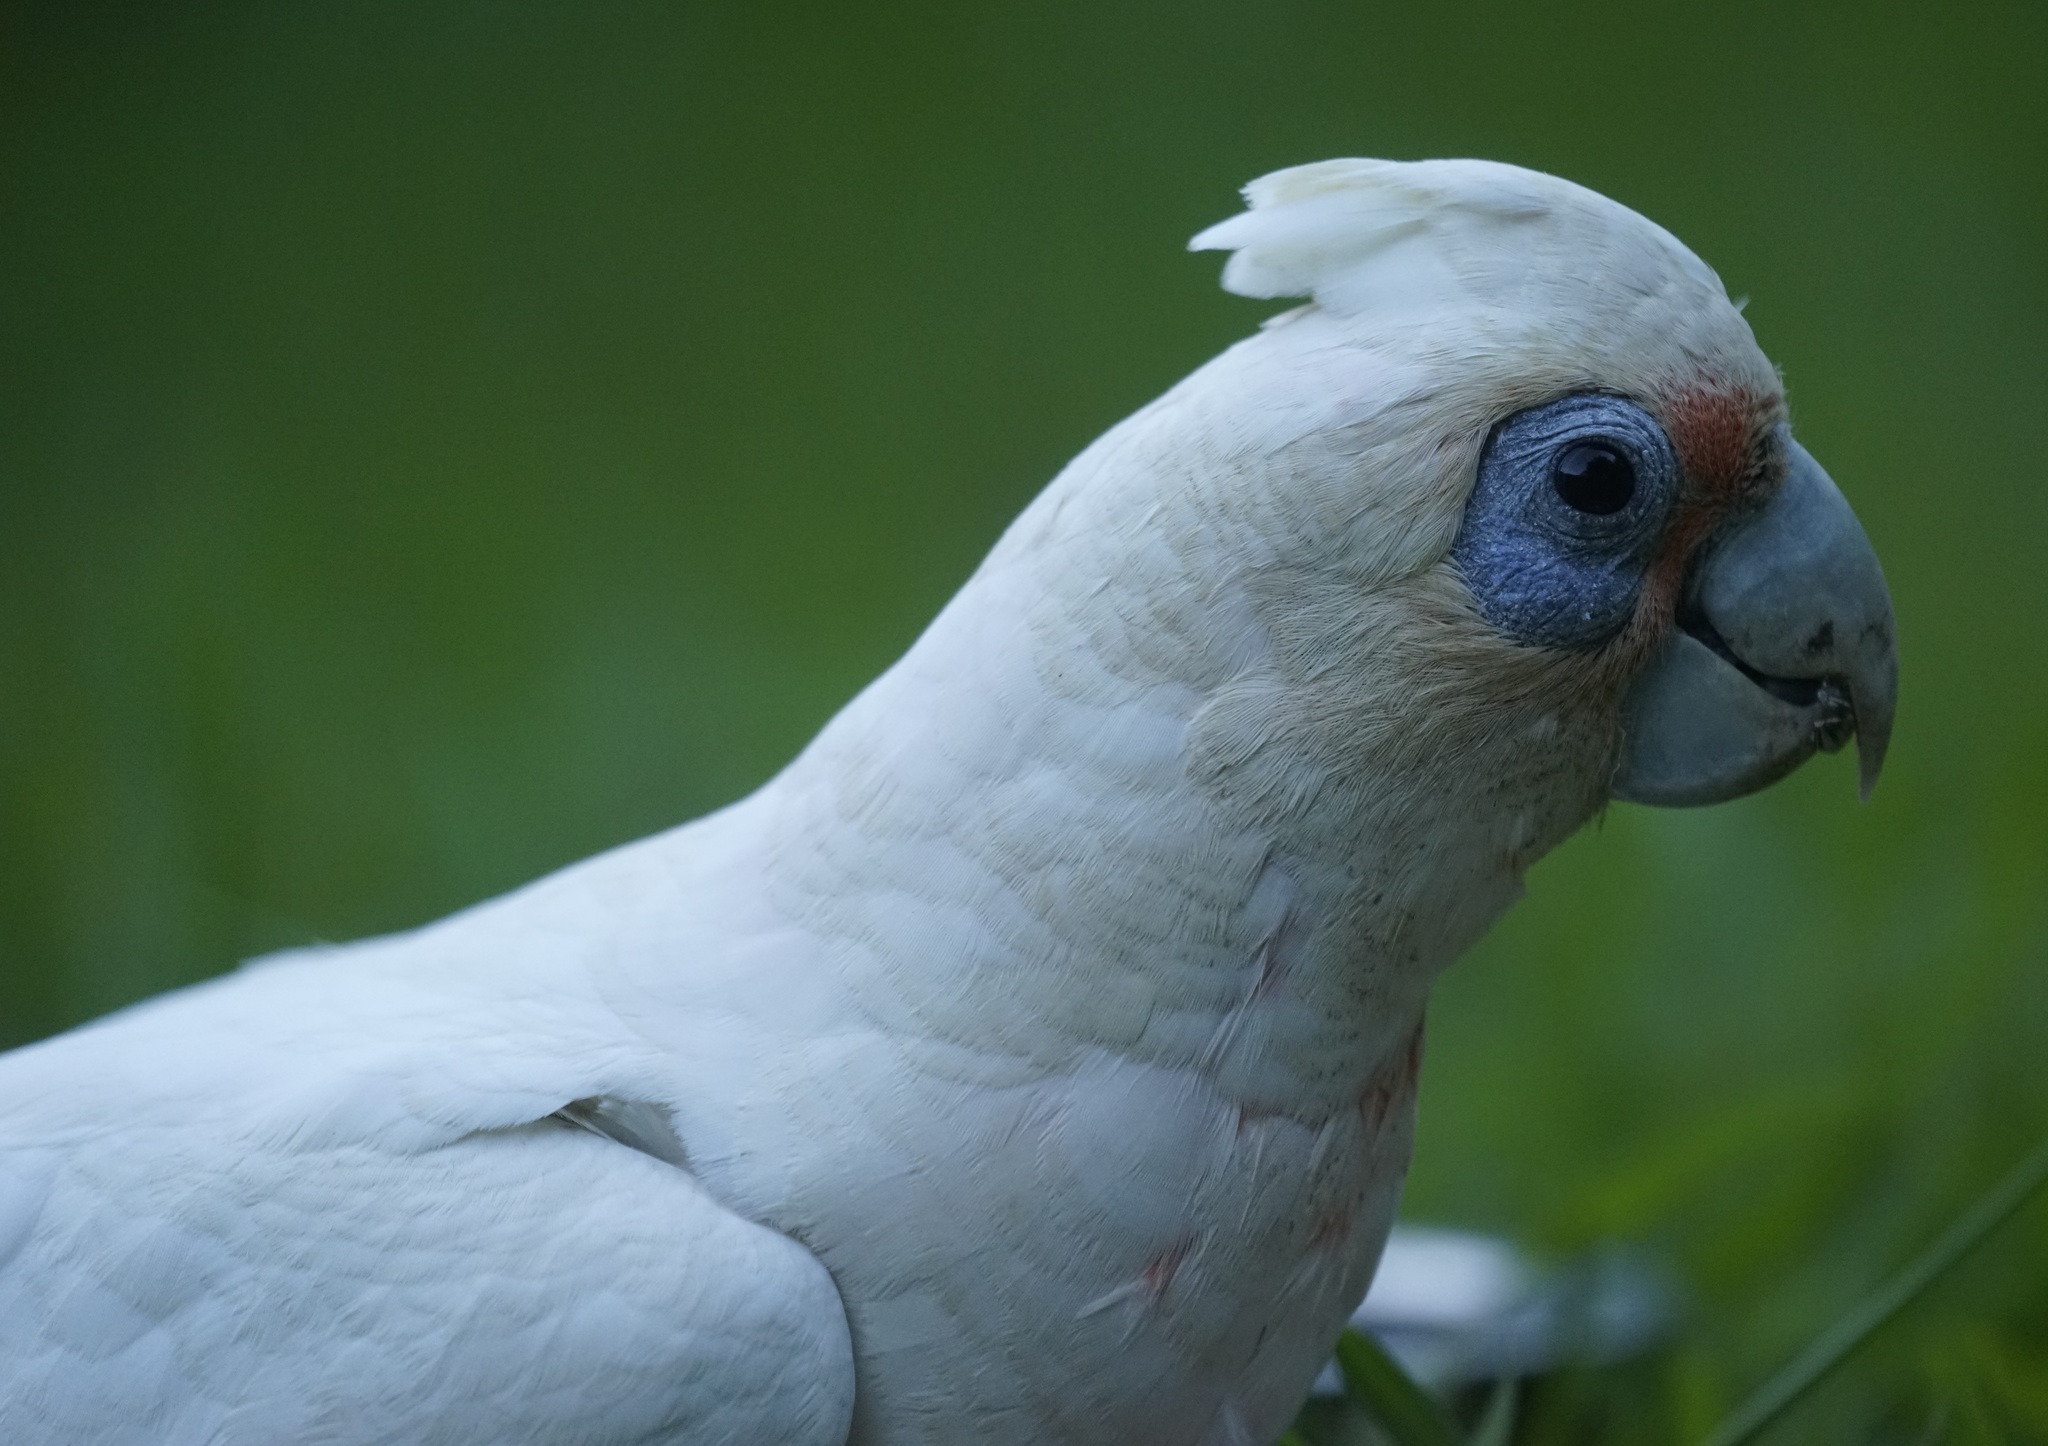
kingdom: Animalia
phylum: Chordata
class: Aves
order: Psittaciformes
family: Psittacidae
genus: Cacatua
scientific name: Cacatua sanguinea
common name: Little corella
